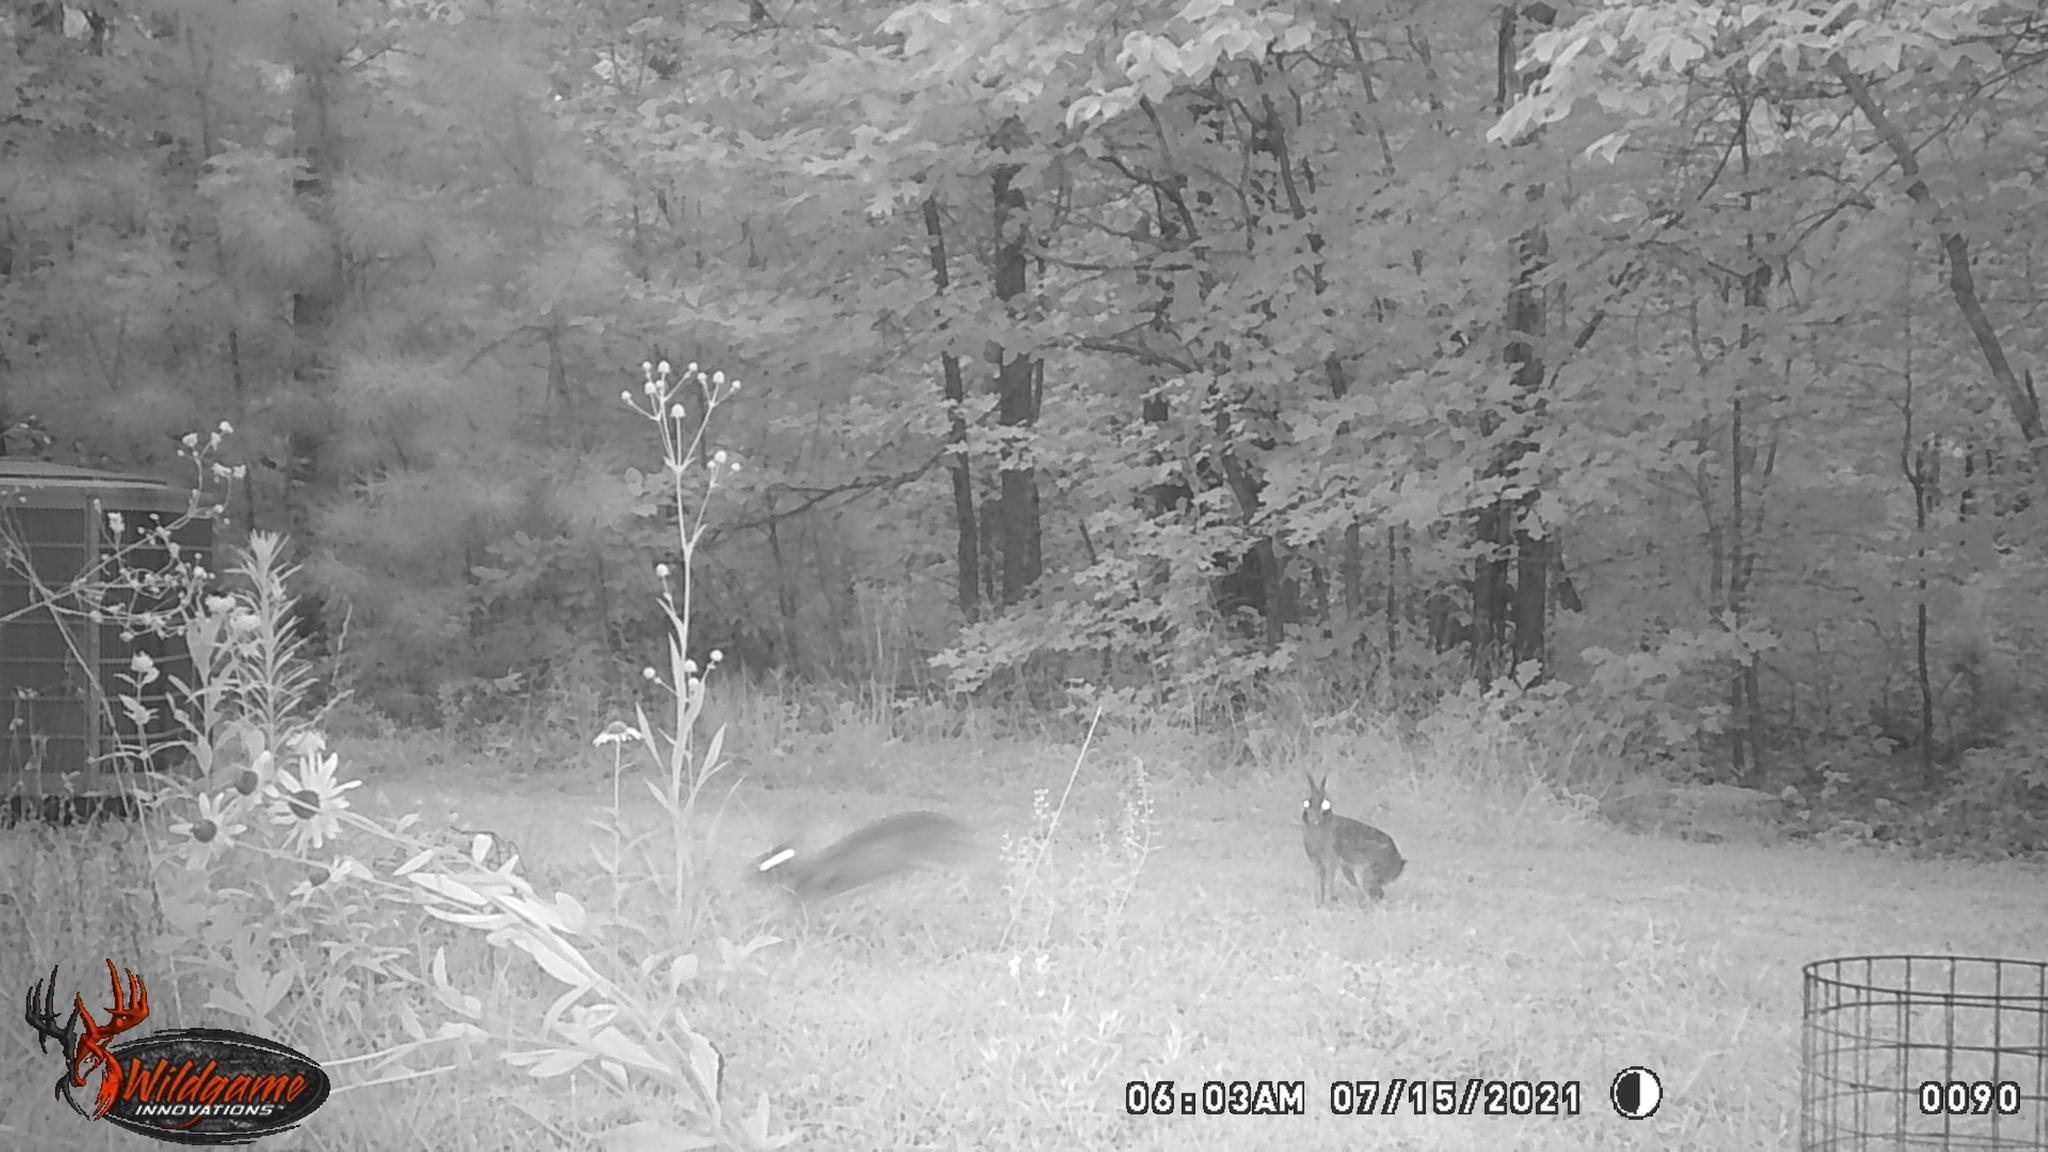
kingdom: Animalia
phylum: Chordata
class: Mammalia
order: Lagomorpha
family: Leporidae
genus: Sylvilagus
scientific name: Sylvilagus floridanus
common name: Eastern cottontail
